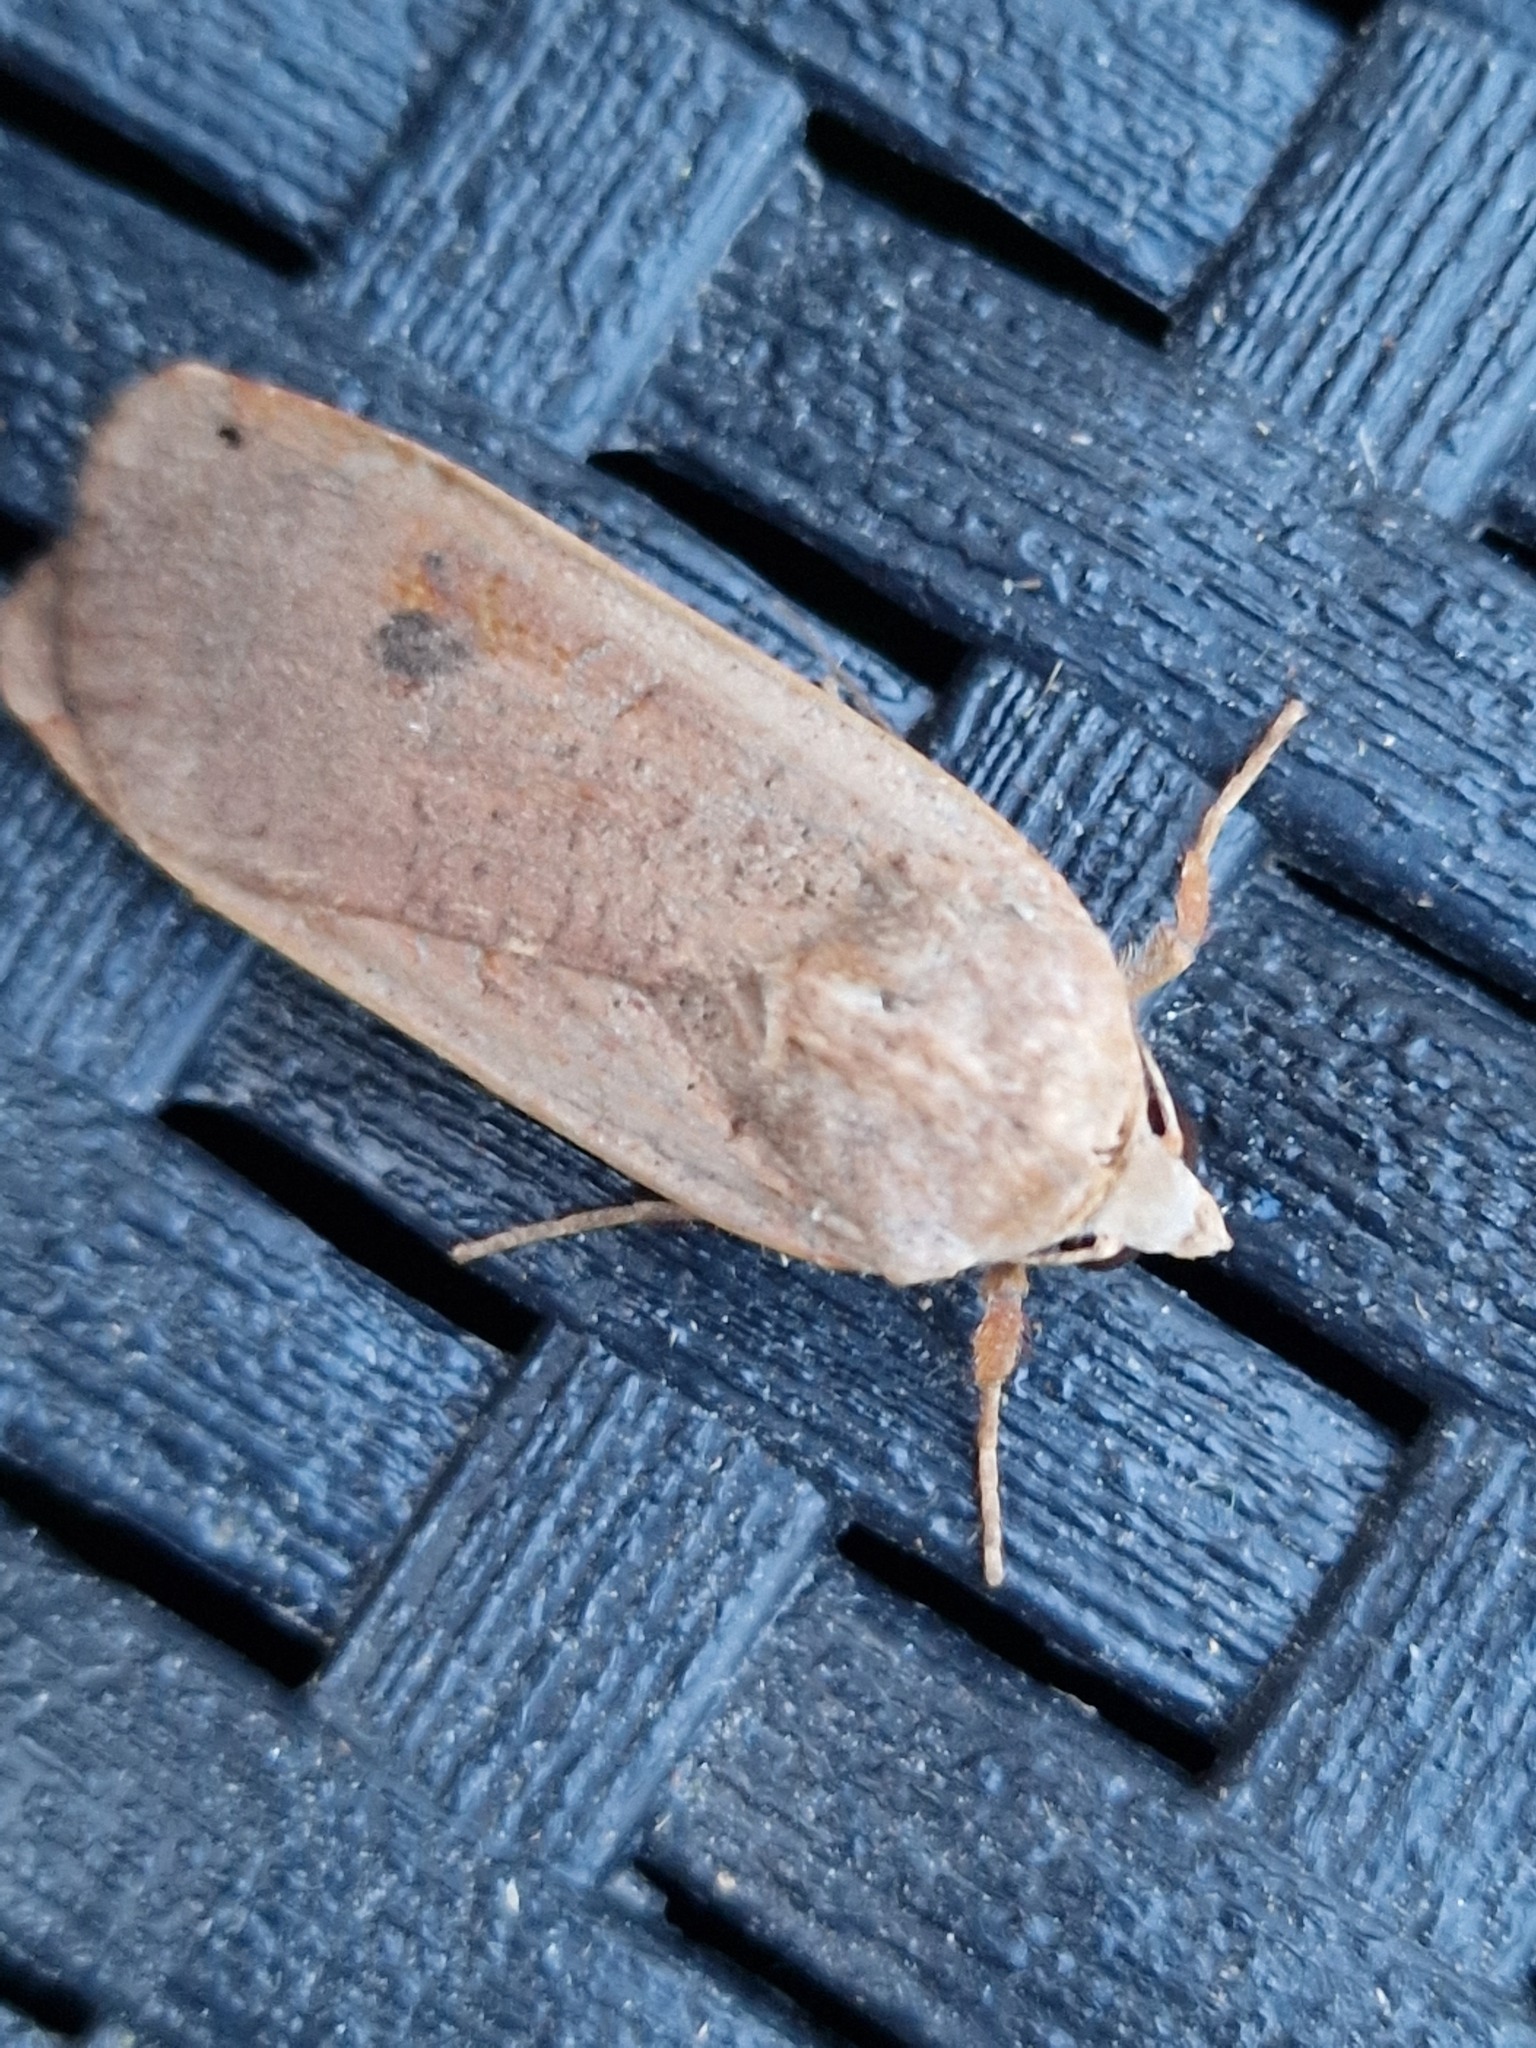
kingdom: Animalia
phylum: Arthropoda
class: Insecta
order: Lepidoptera
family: Noctuidae
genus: Noctua
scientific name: Noctua pronuba
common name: Large yellow underwing
